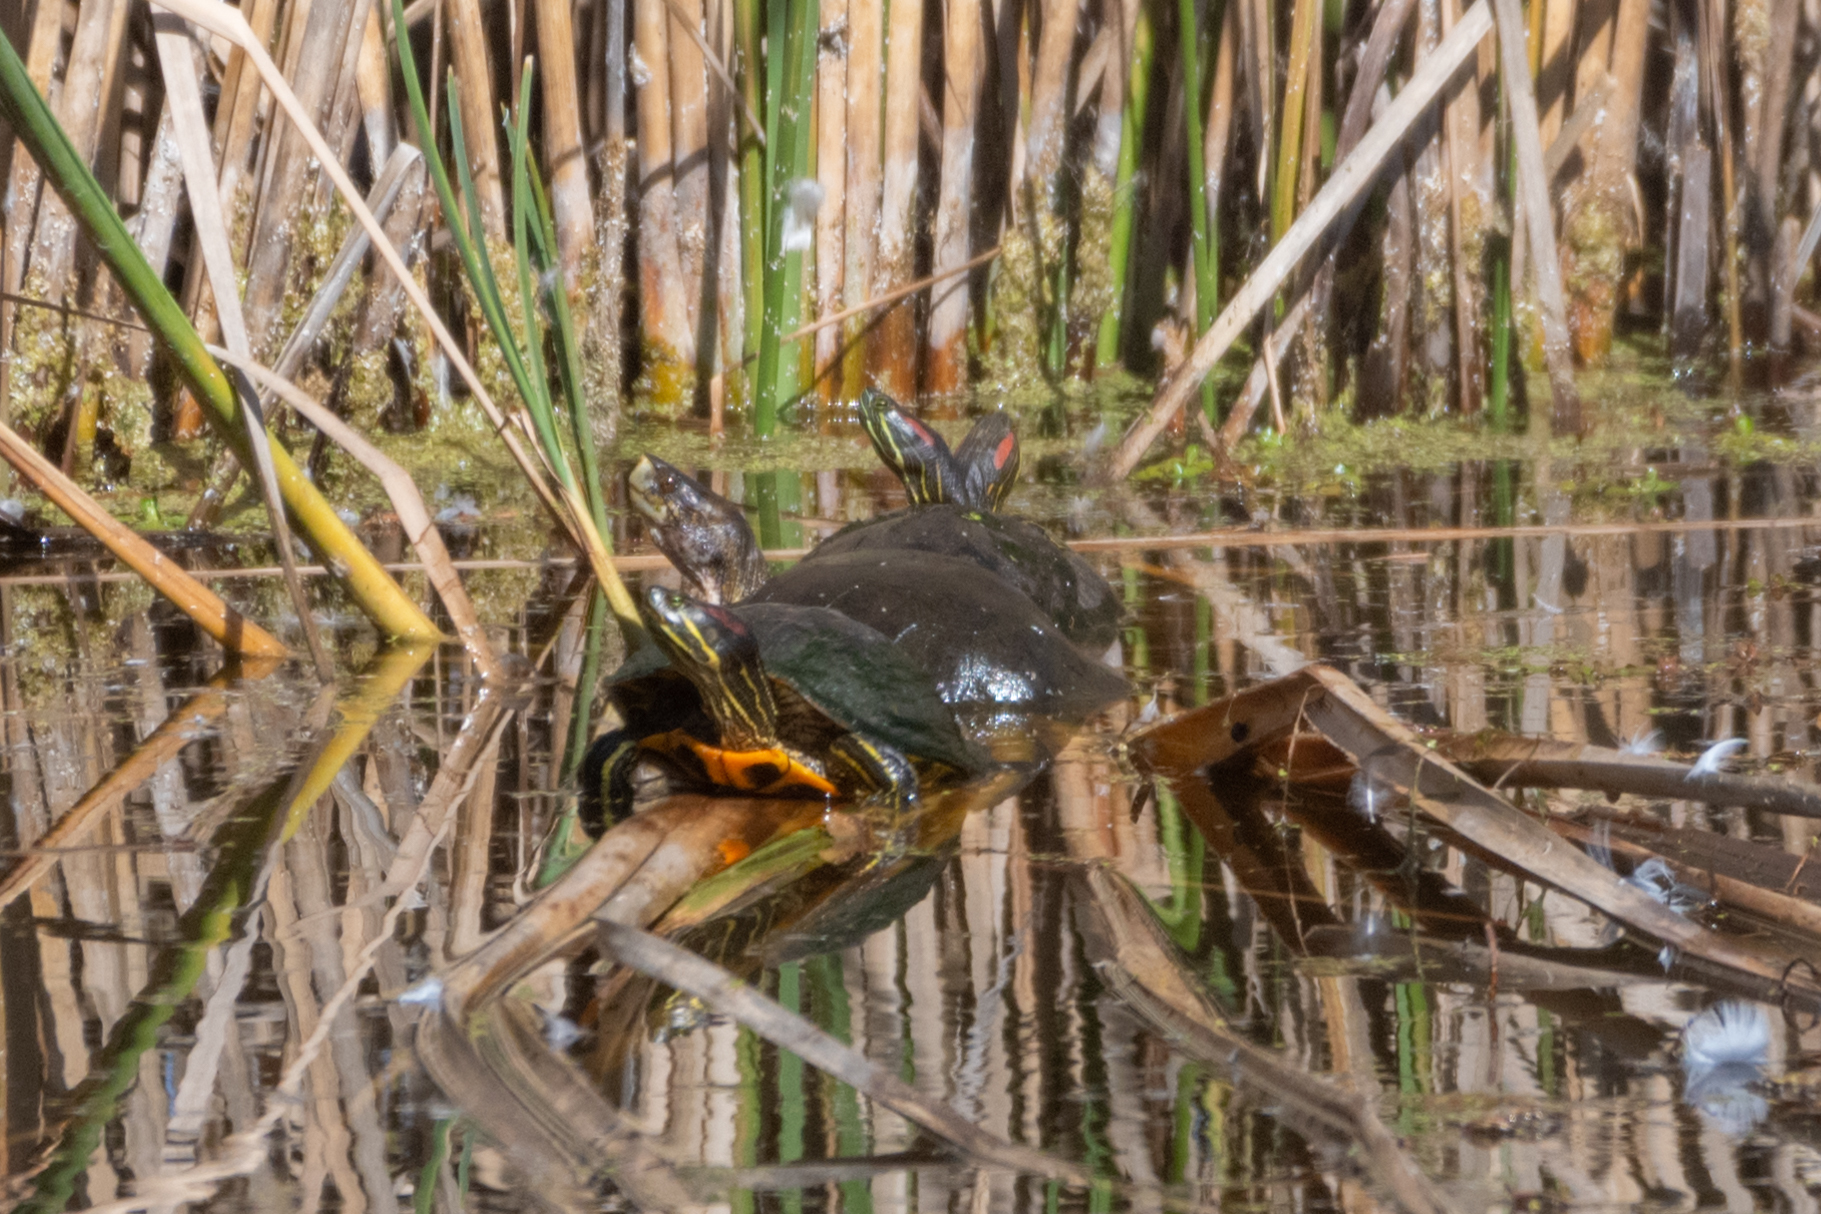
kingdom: Animalia
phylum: Chordata
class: Testudines
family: Emydidae
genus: Trachemys
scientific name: Trachemys scripta
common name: Slider
